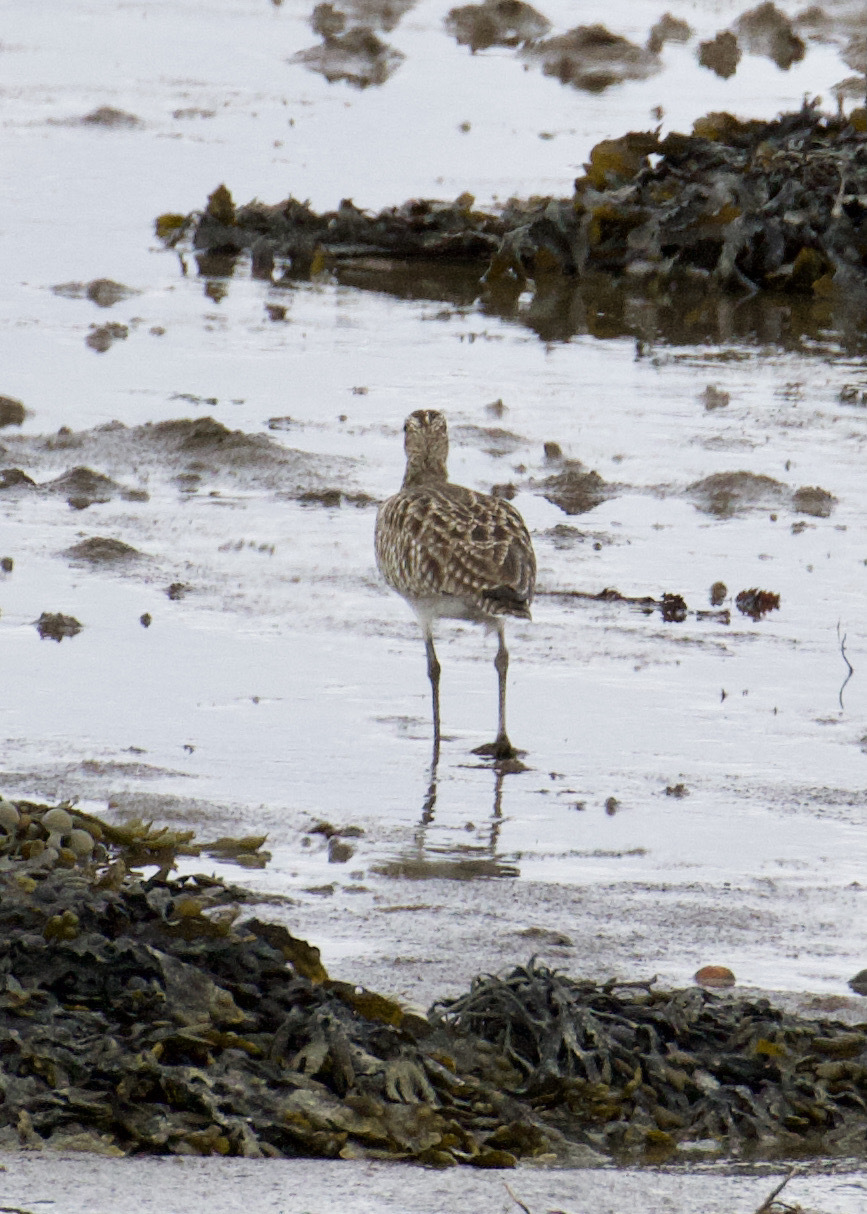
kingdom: Animalia
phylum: Chordata
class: Aves
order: Charadriiformes
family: Scolopacidae
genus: Numenius
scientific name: Numenius phaeopus
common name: Whimbrel
